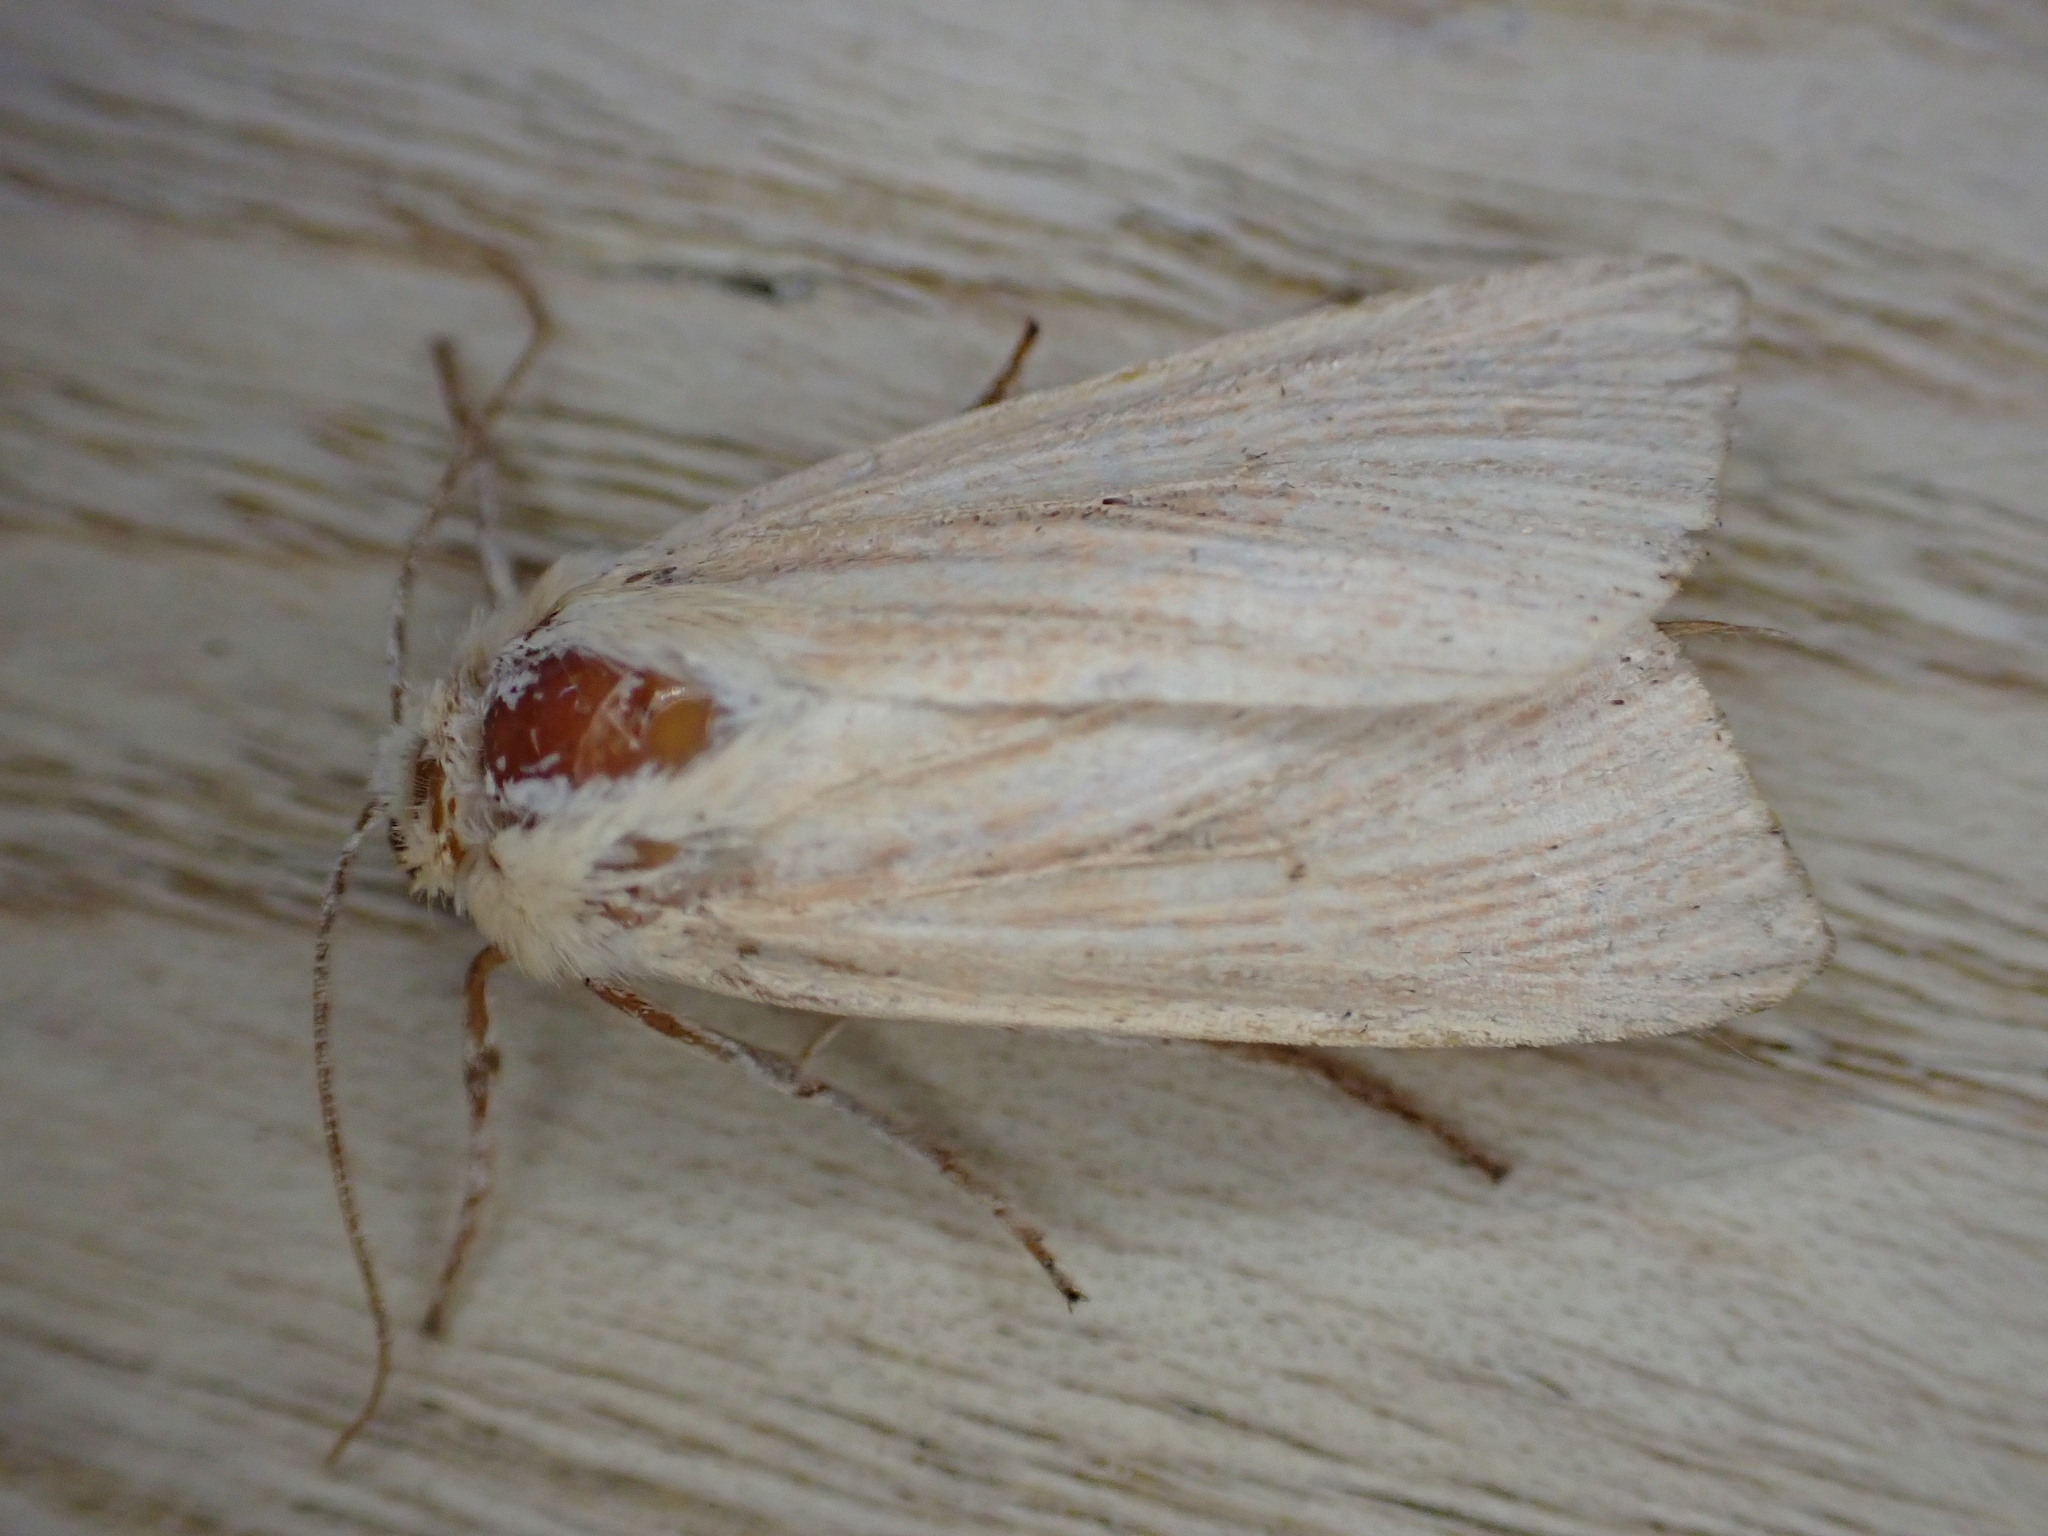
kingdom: Animalia
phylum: Arthropoda
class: Insecta
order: Lepidoptera
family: Noctuidae
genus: Mythimna
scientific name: Mythimna pallens
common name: Common wainscot
